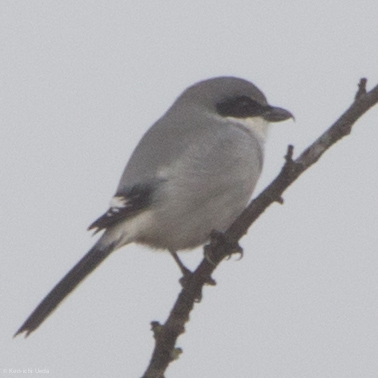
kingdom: Animalia
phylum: Chordata
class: Aves
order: Passeriformes
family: Laniidae
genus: Lanius
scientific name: Lanius ludovicianus
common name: Loggerhead shrike
